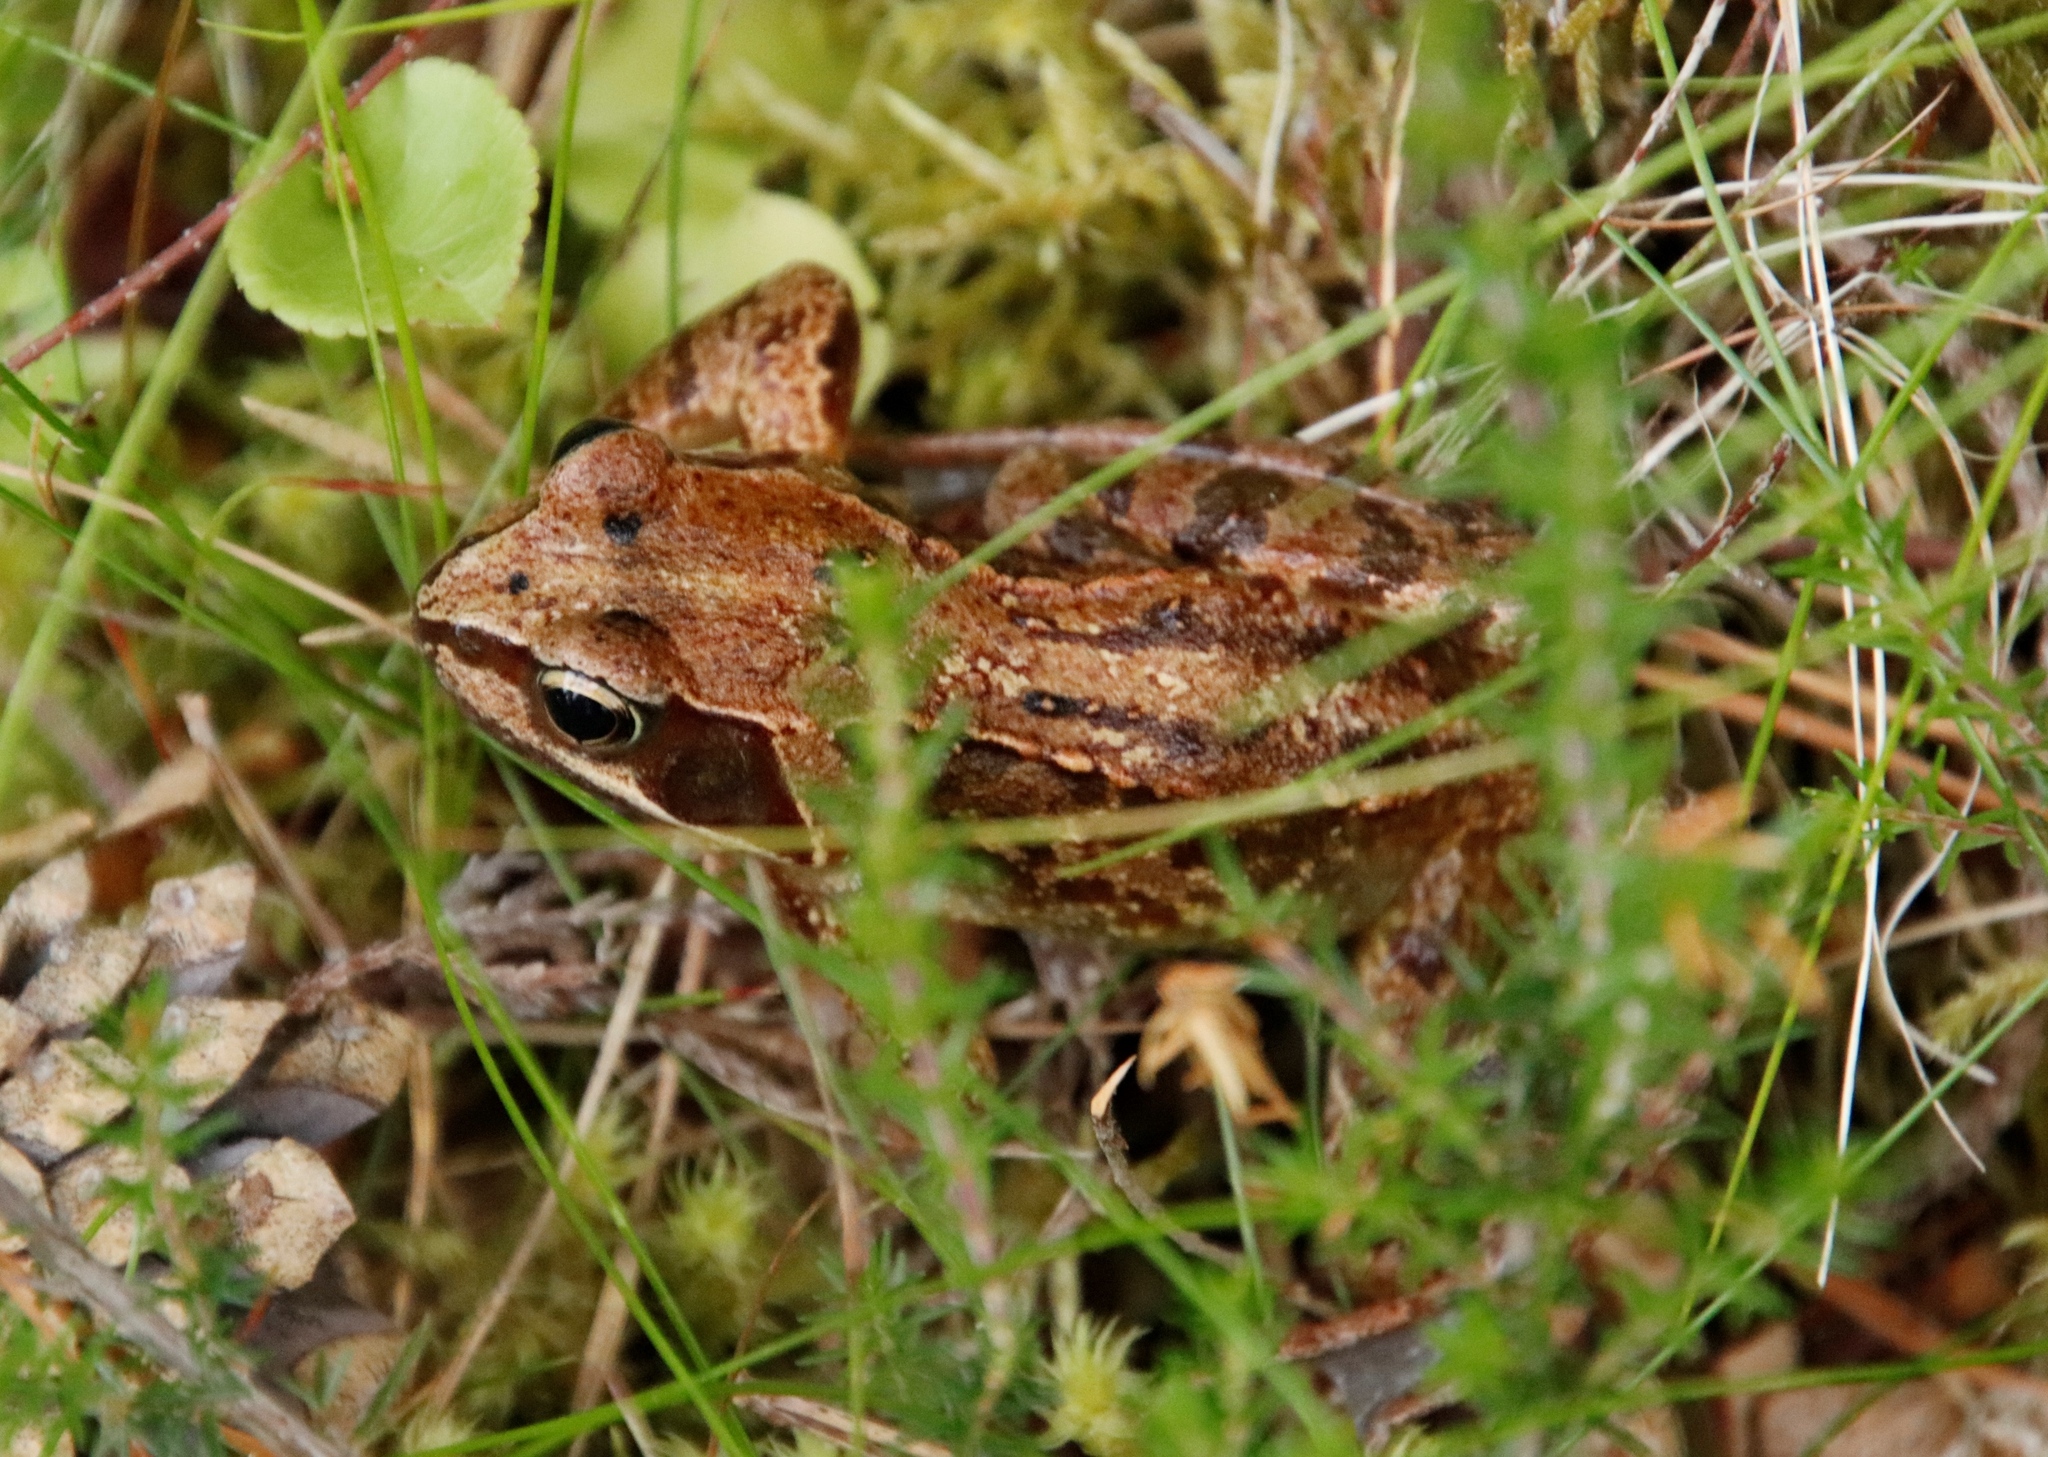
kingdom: Animalia
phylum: Chordata
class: Amphibia
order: Anura
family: Ranidae
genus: Rana
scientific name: Rana temporaria
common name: Common frog
